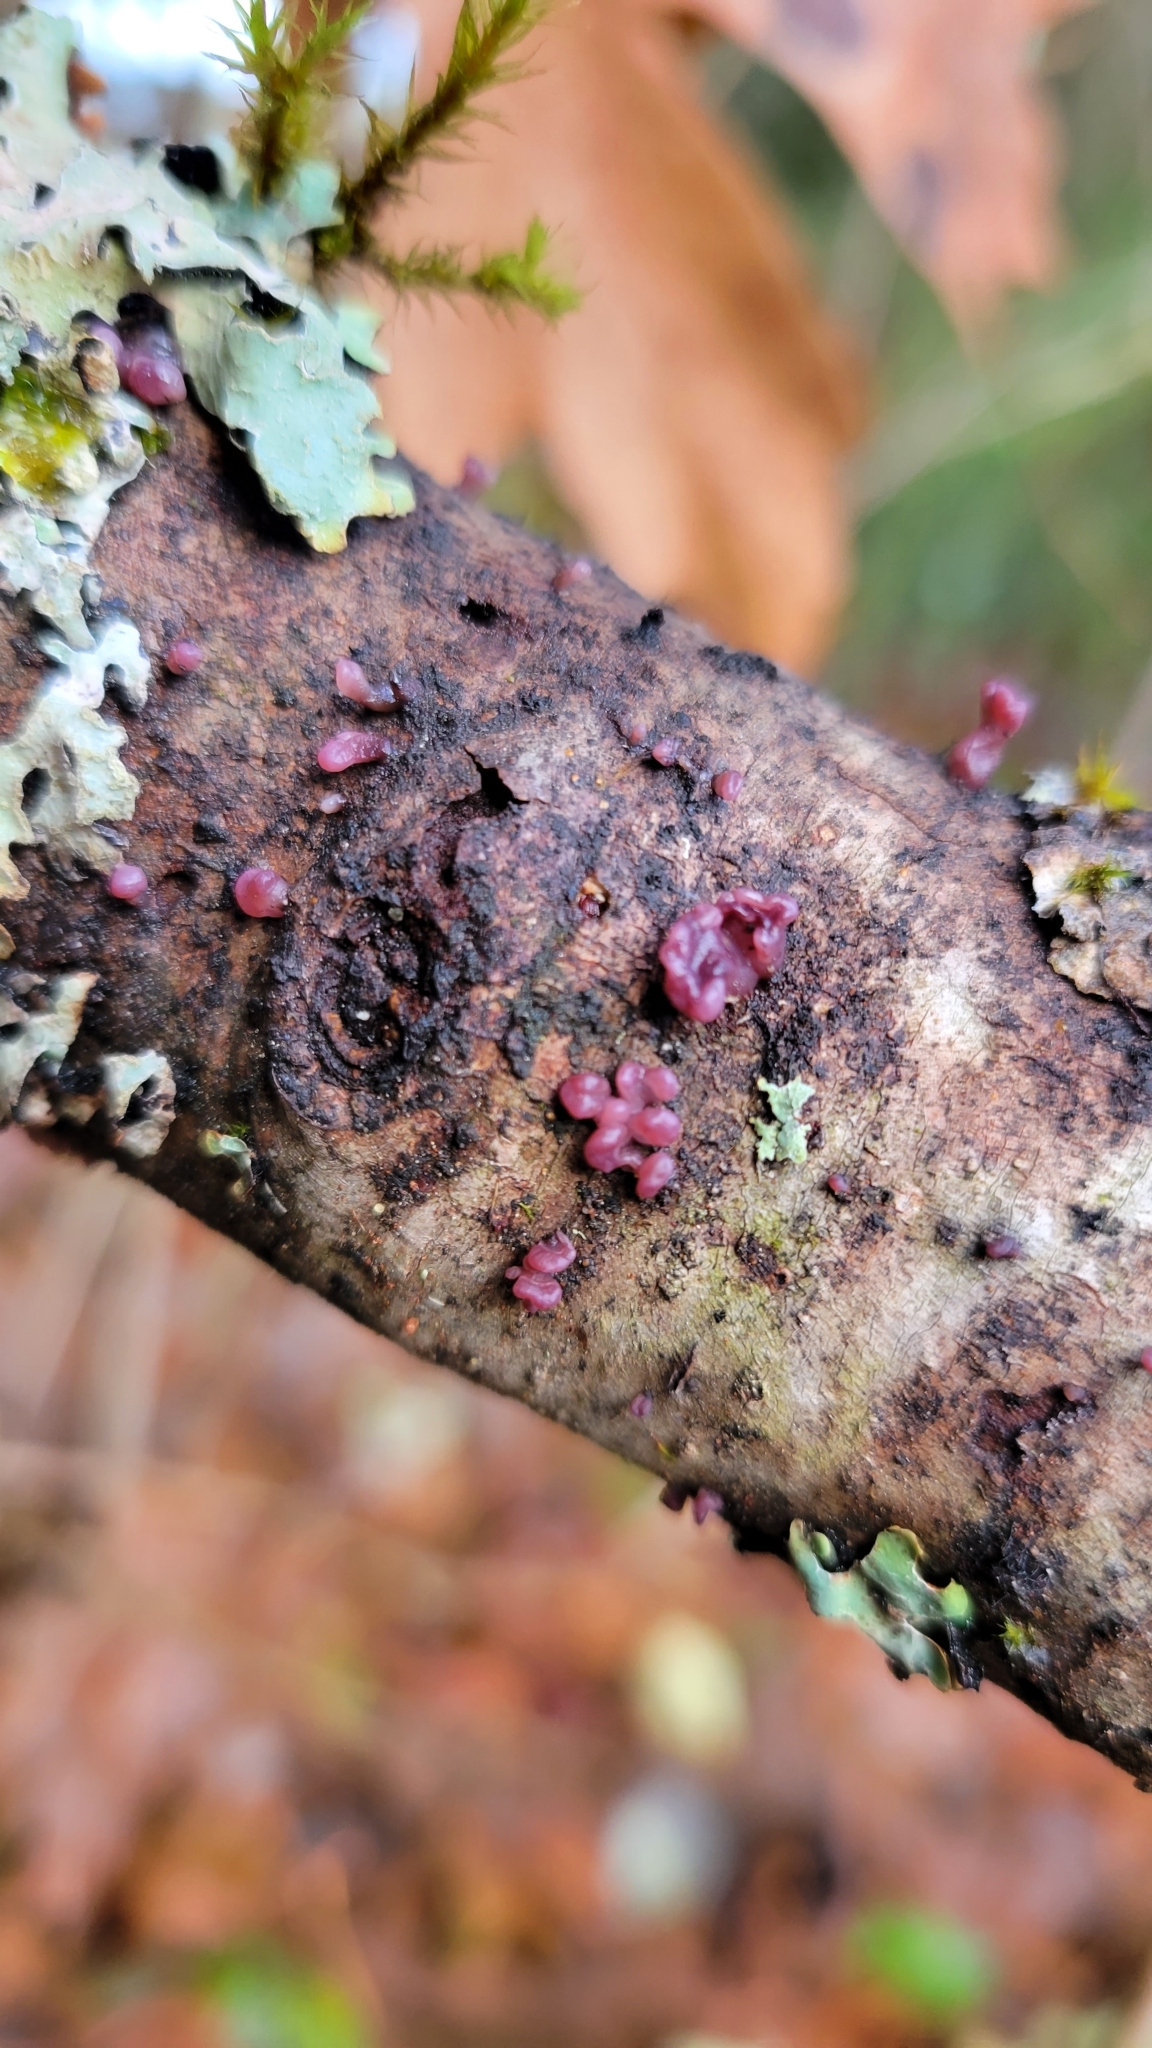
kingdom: Fungi
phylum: Ascomycota
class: Leotiomycetes
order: Helotiales
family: Gelatinodiscaceae
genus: Ascocoryne
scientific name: Ascocoryne sarcoides
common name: Purple jellydisc
